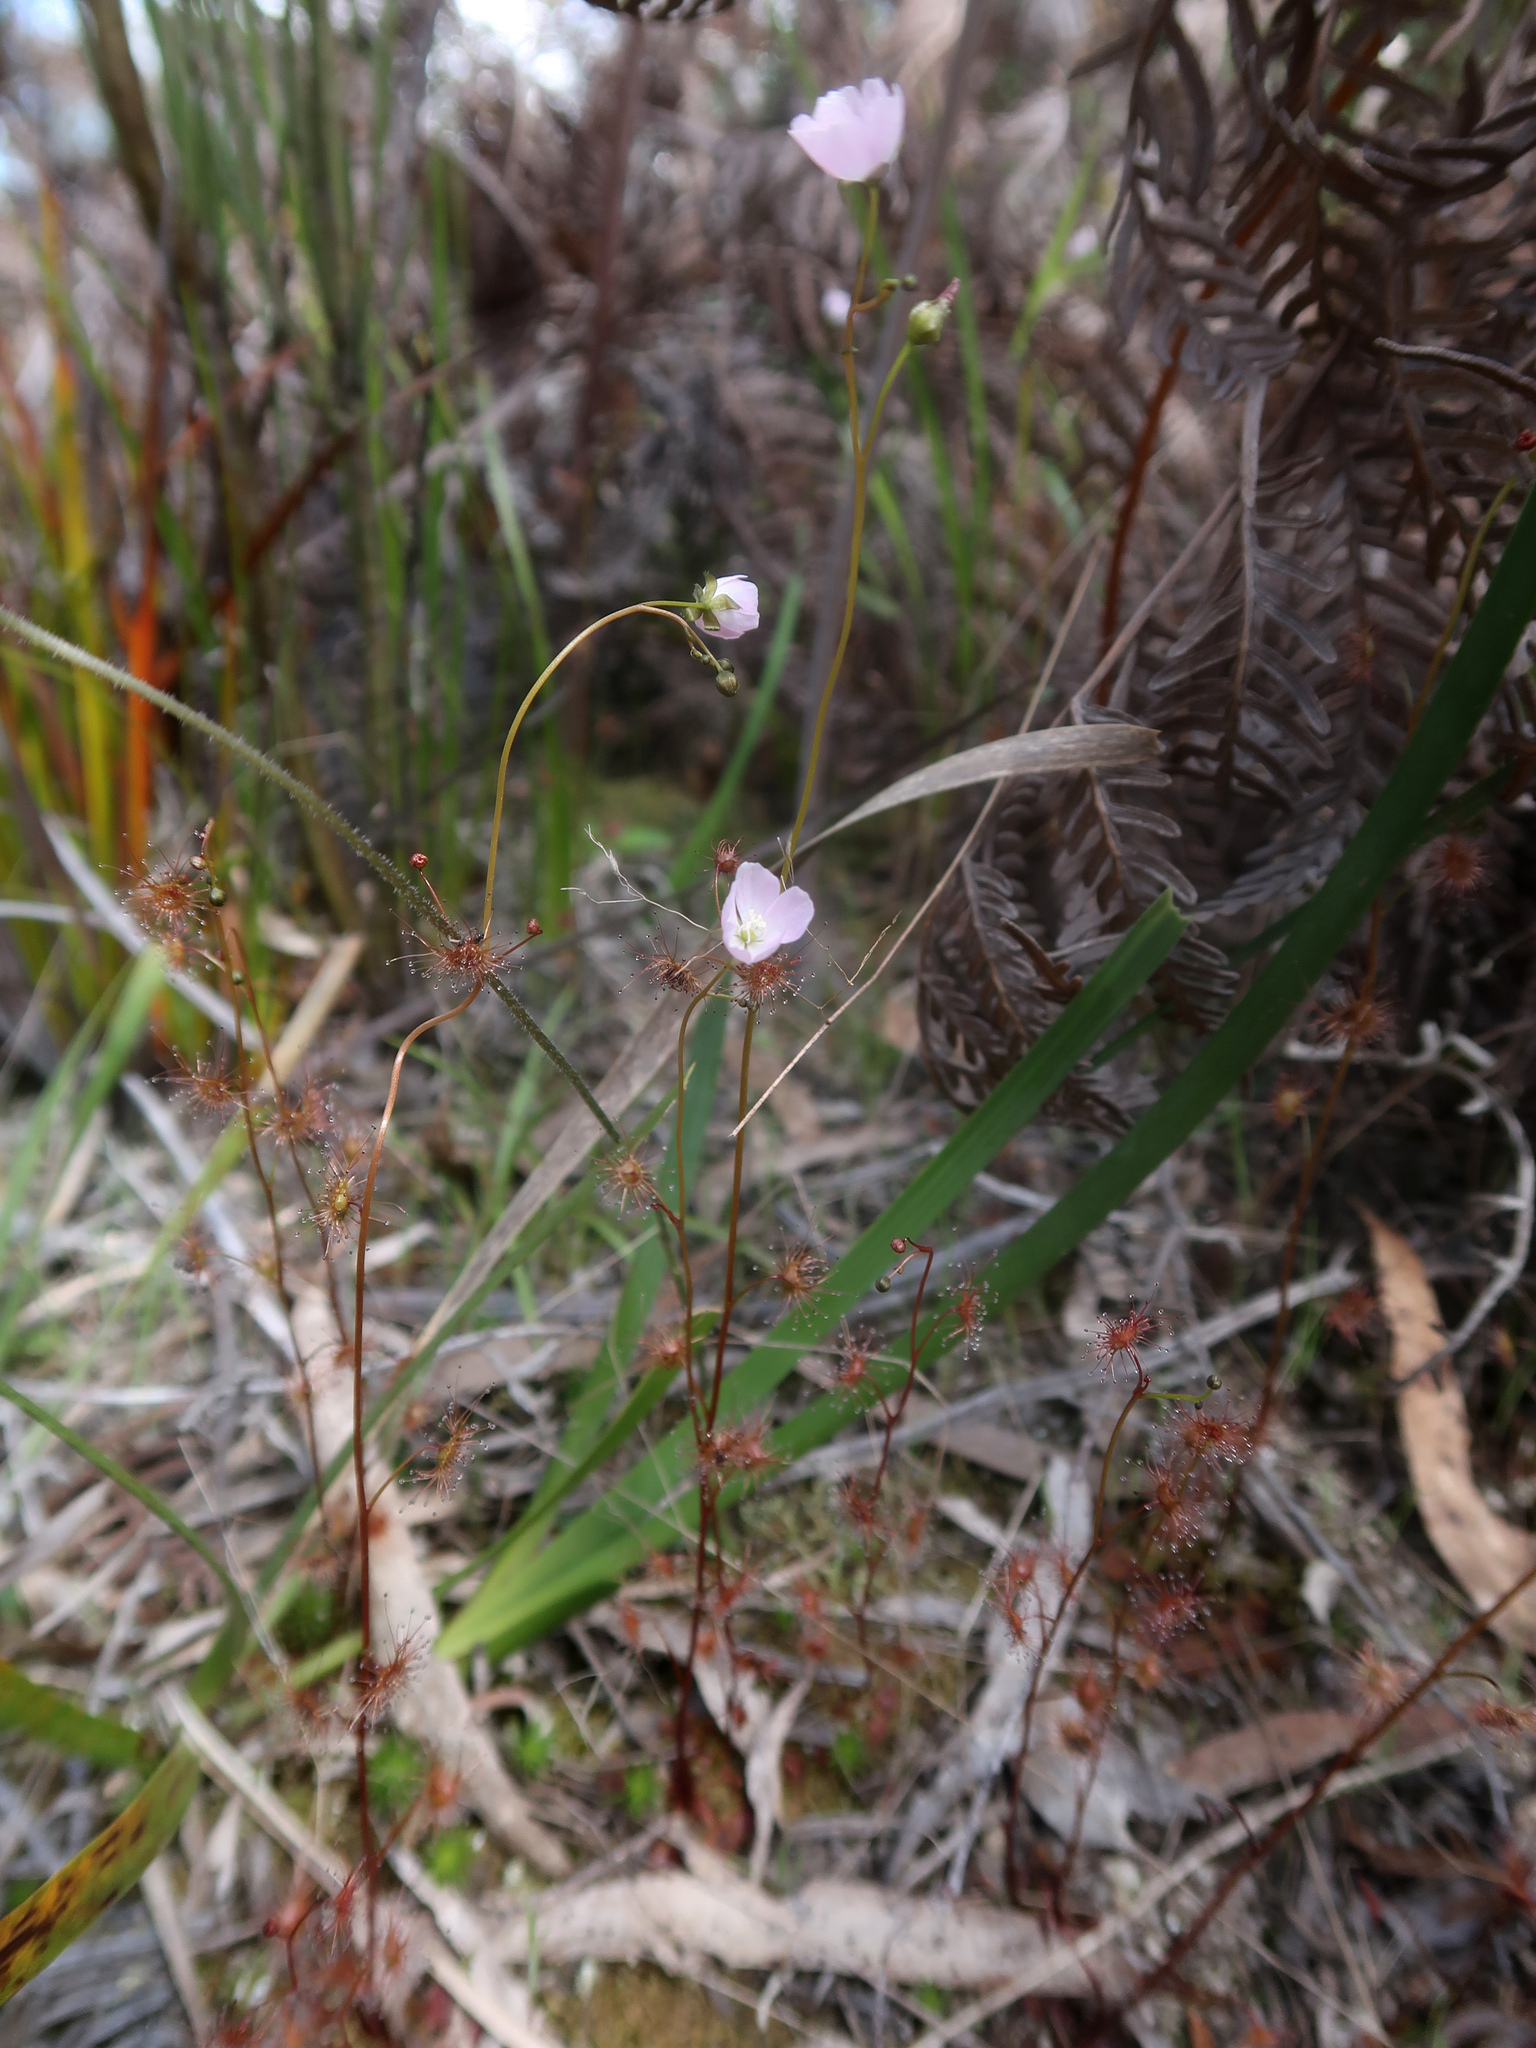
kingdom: Plantae
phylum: Tracheophyta
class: Magnoliopsida
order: Caryophyllales
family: Droseraceae
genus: Drosera
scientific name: Drosera peltata
